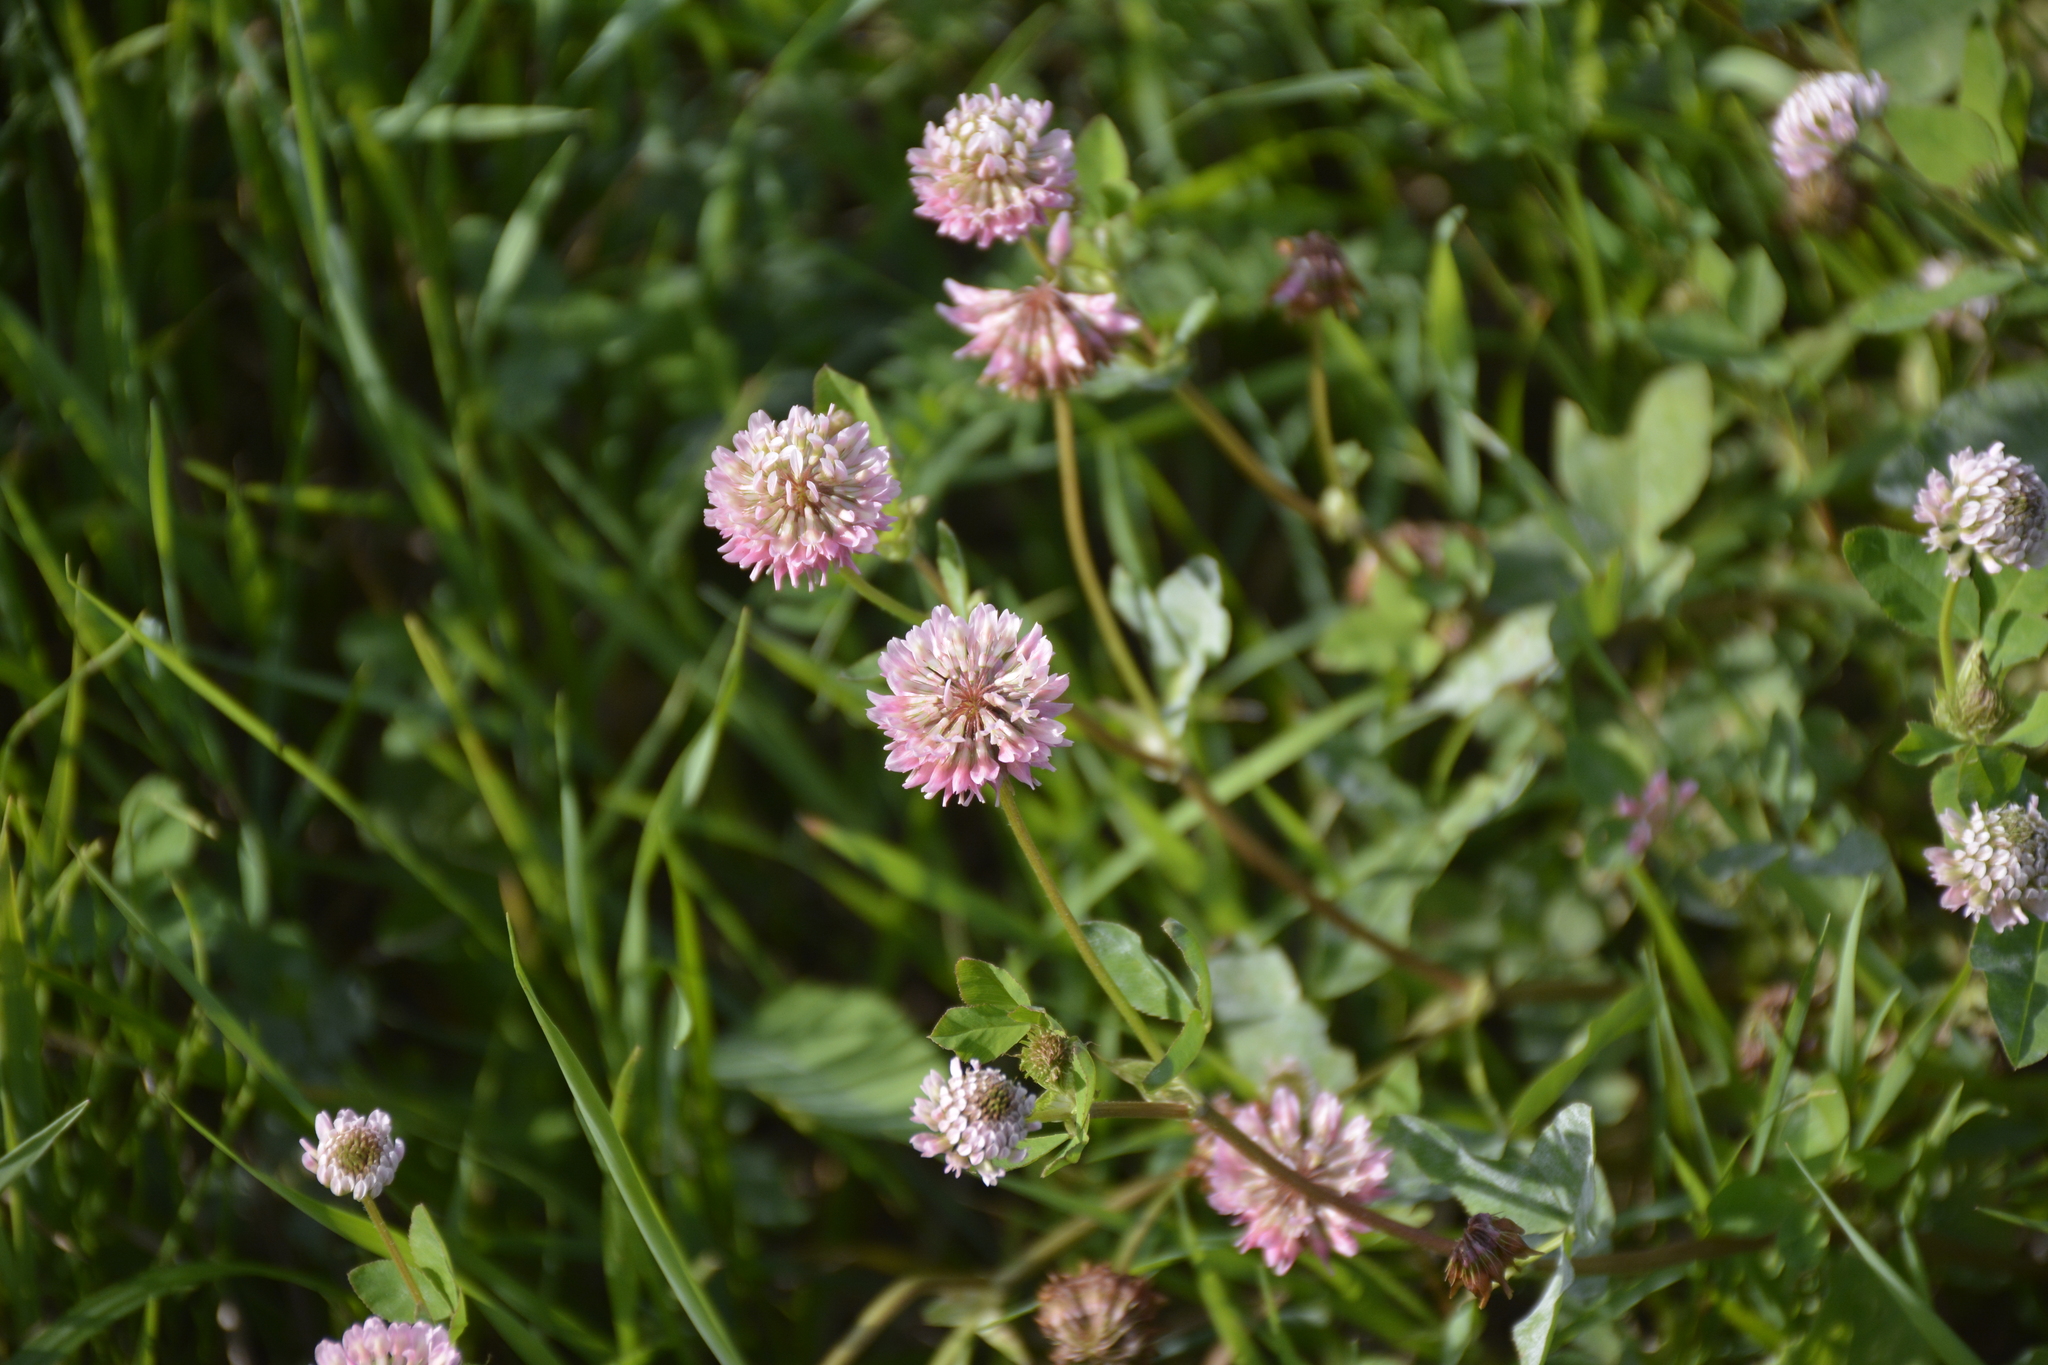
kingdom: Plantae
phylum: Tracheophyta
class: Magnoliopsida
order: Fabales
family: Fabaceae
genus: Trifolium
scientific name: Trifolium hybridum
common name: Alsike clover
